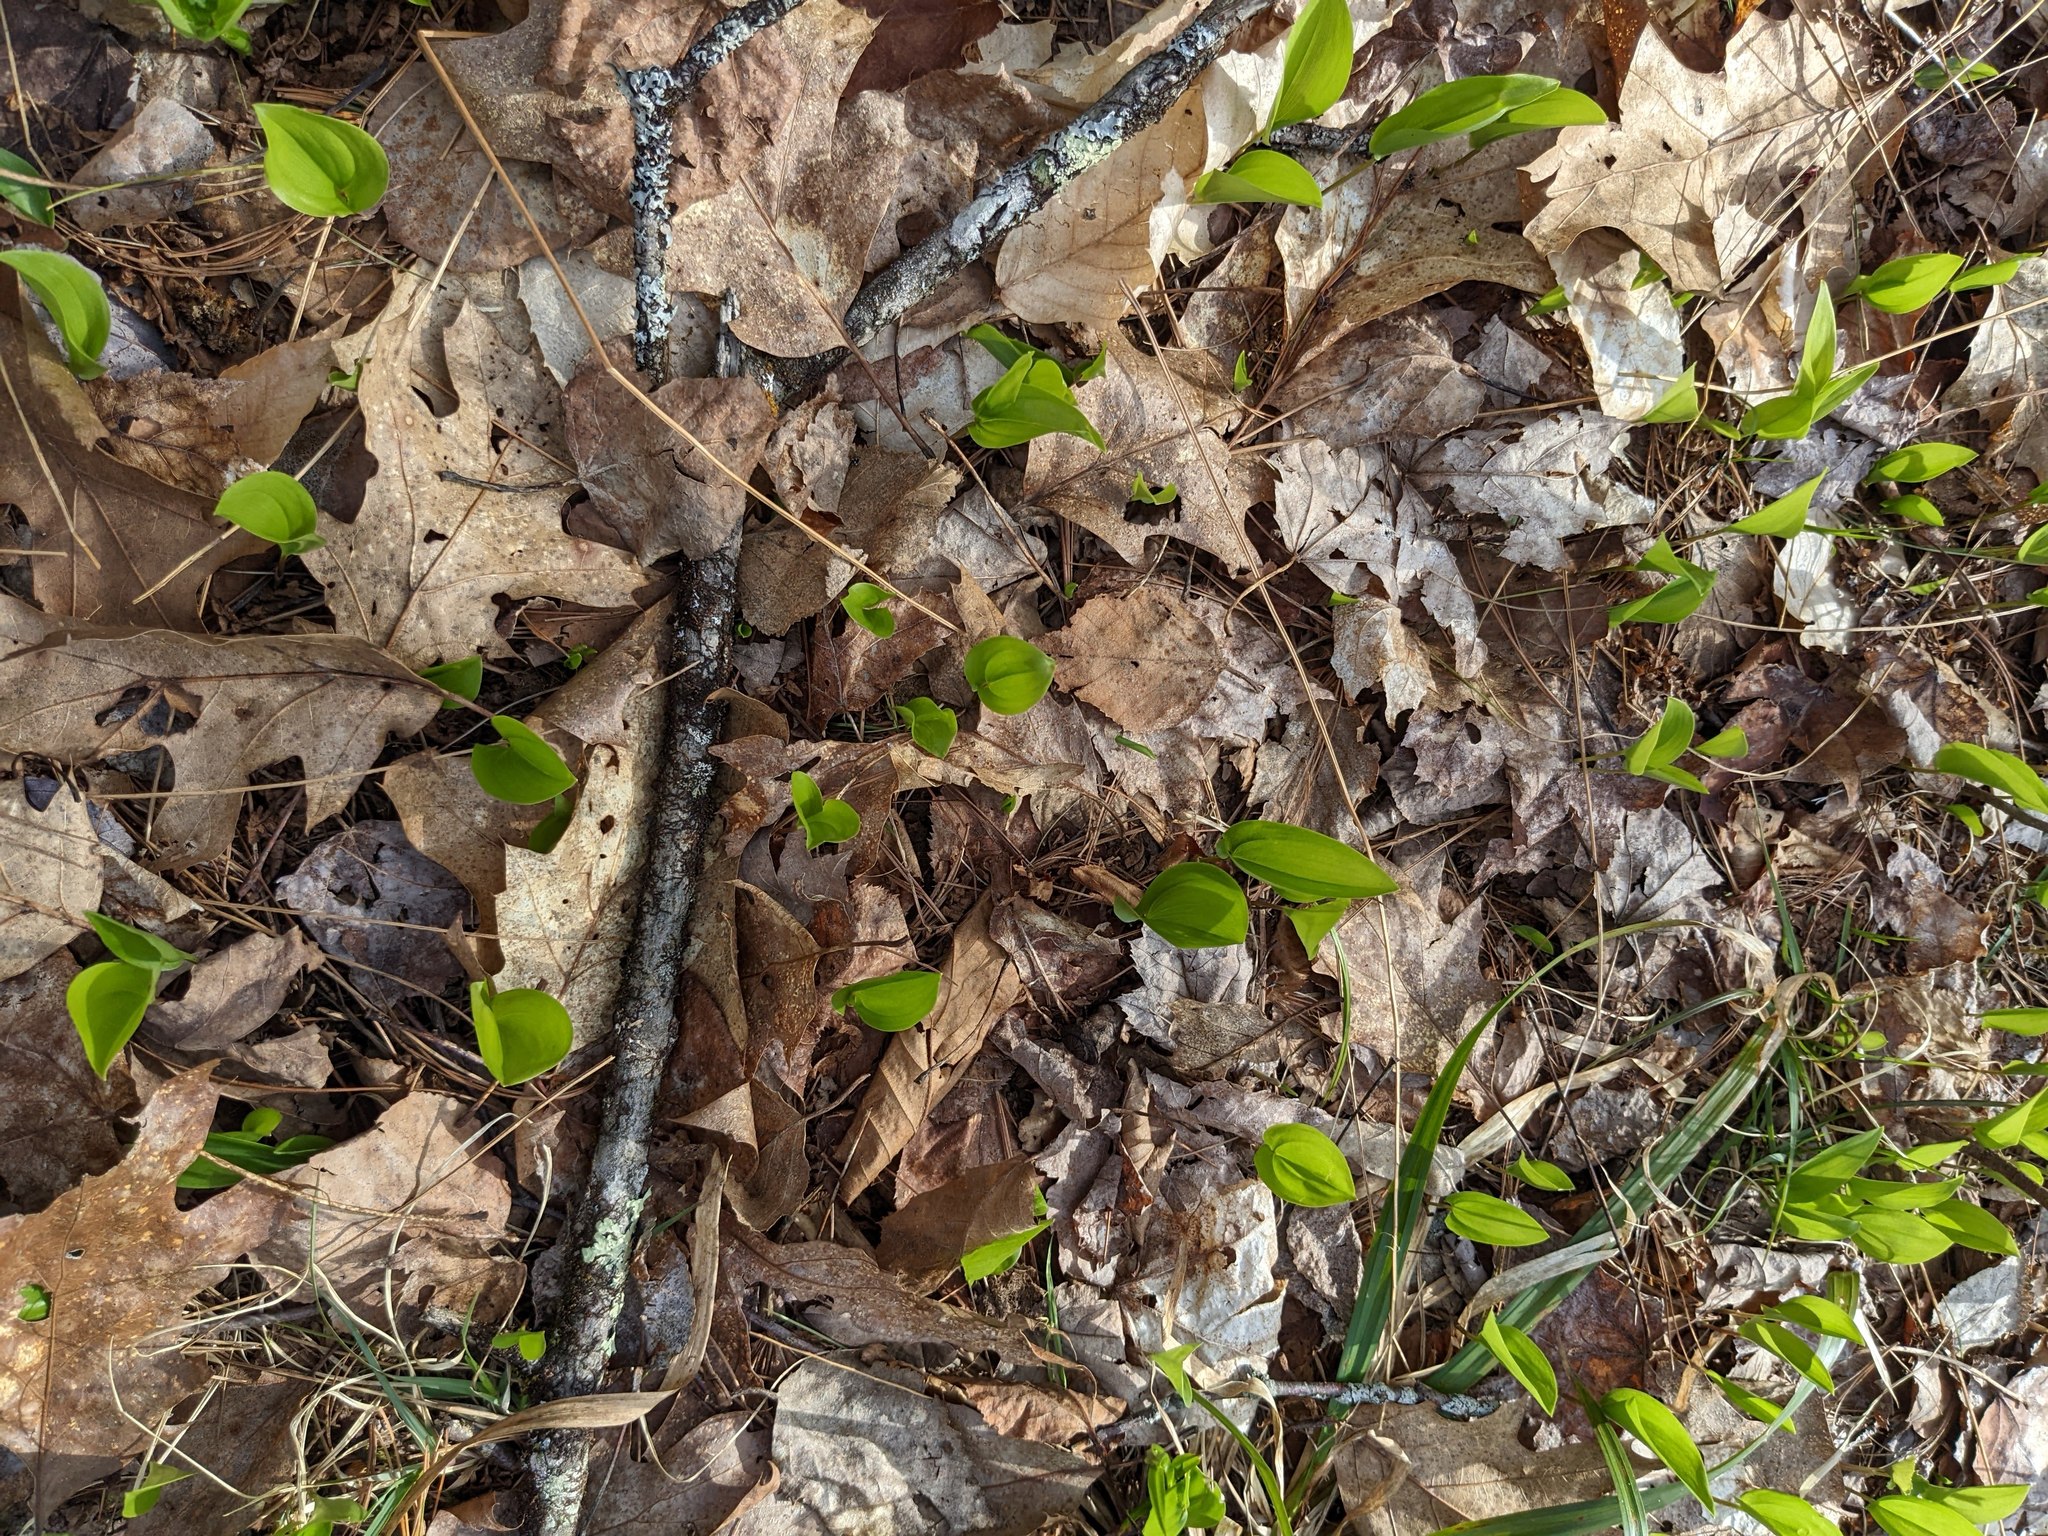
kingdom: Plantae
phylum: Tracheophyta
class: Liliopsida
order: Asparagales
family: Asparagaceae
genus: Maianthemum
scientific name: Maianthemum canadense
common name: False lily-of-the-valley
